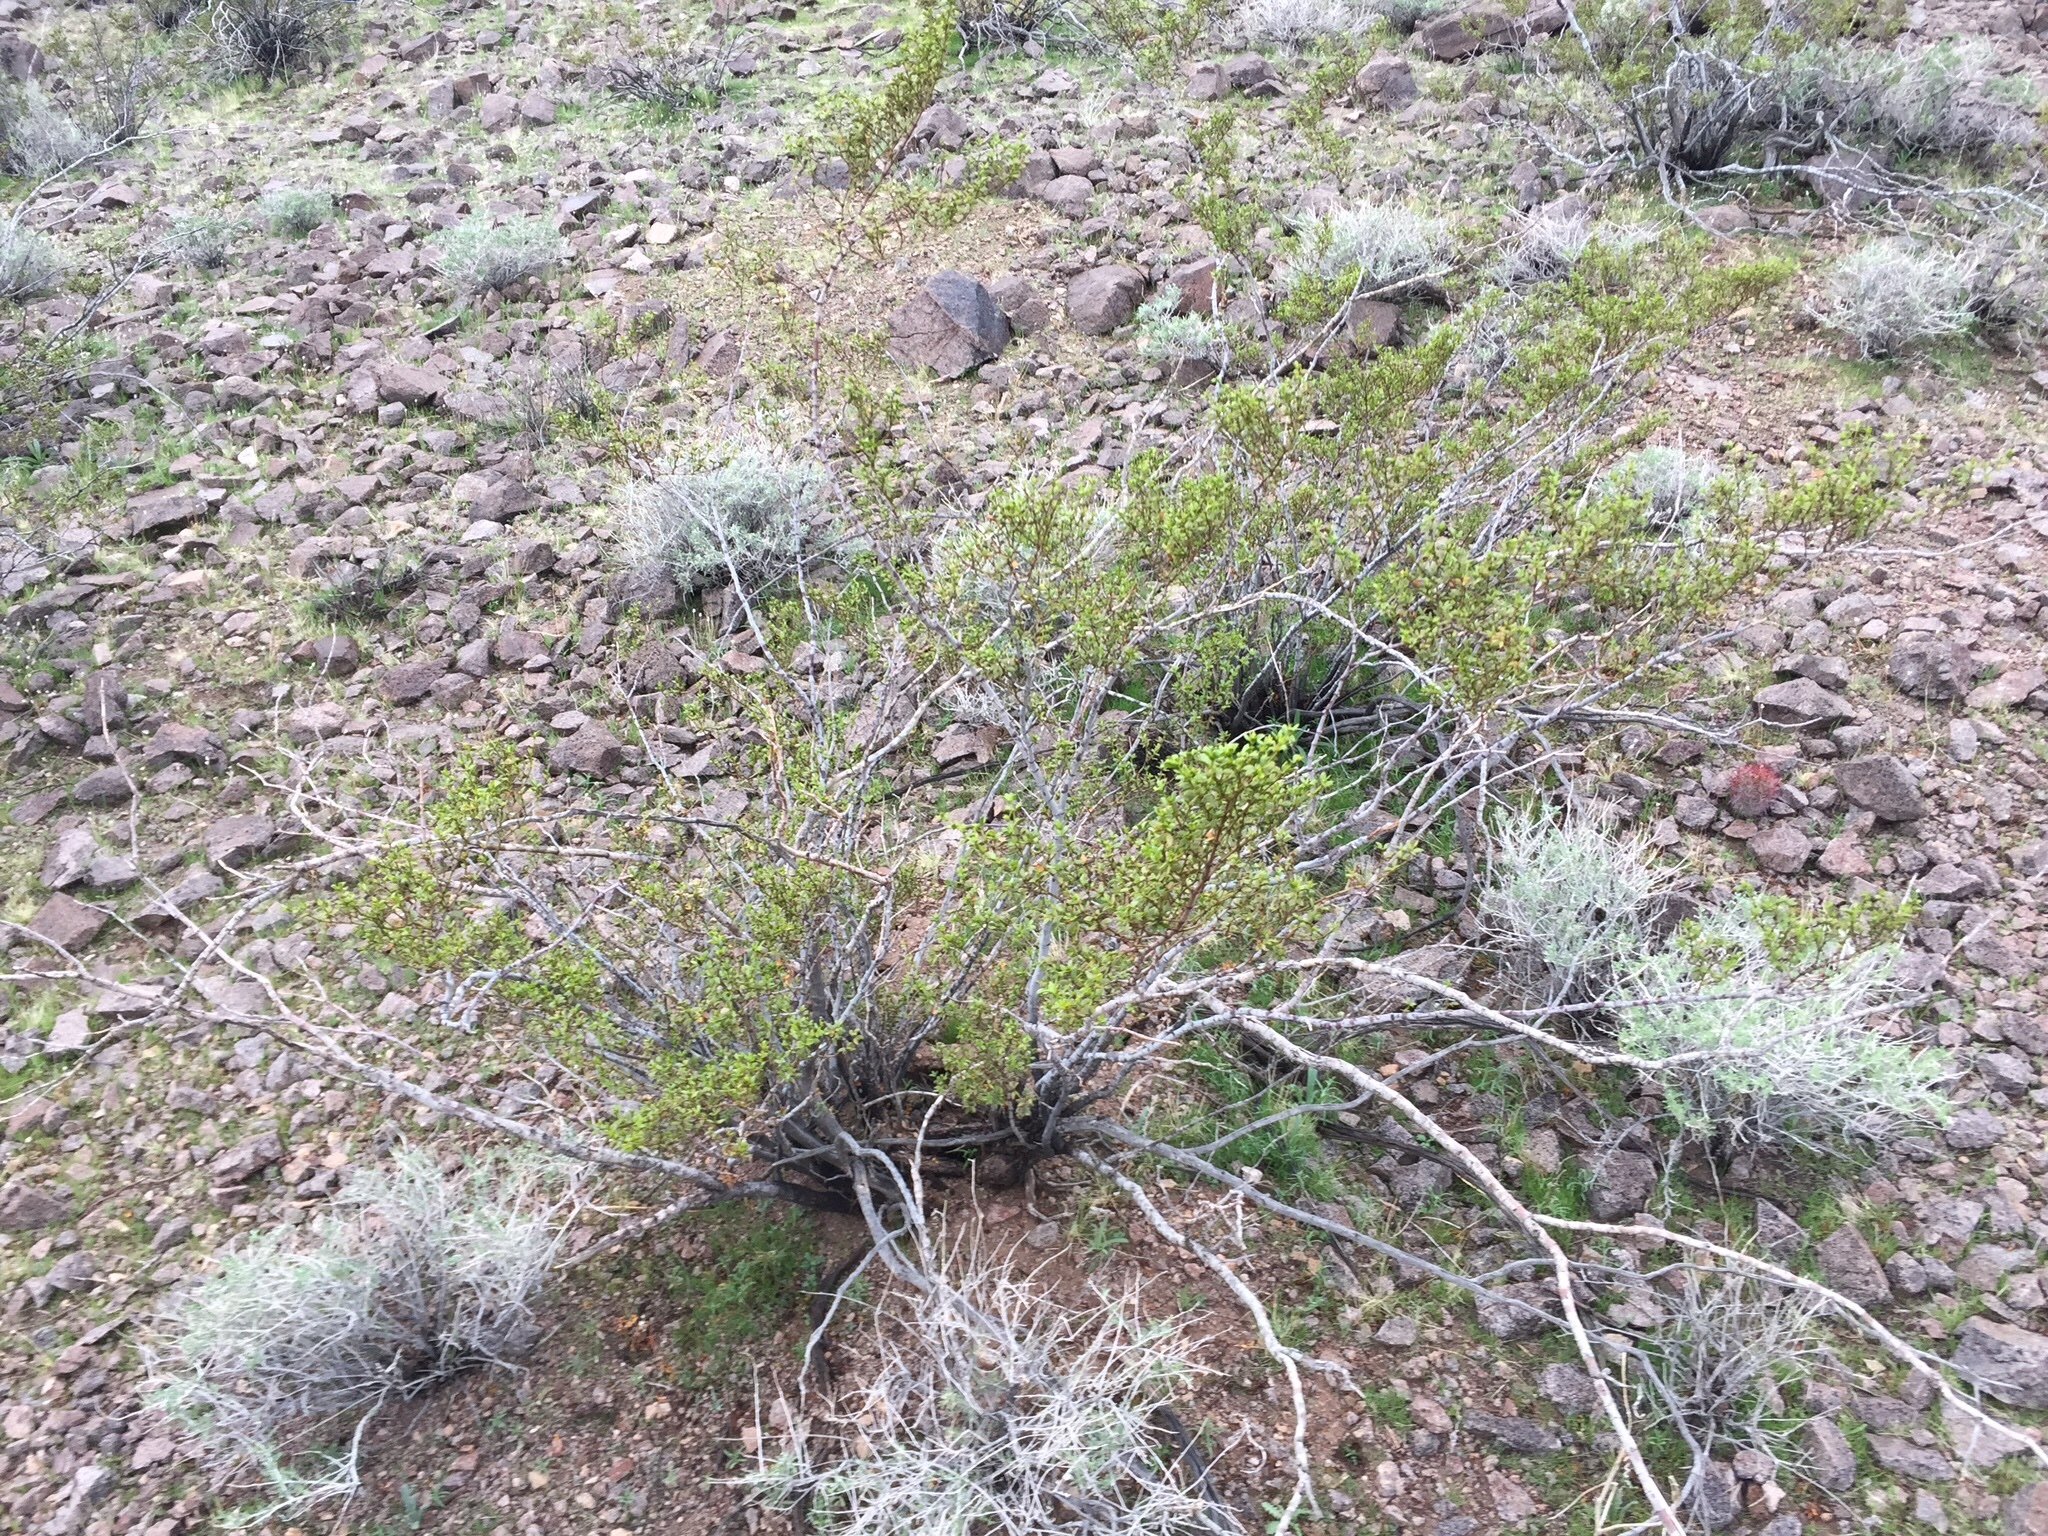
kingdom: Plantae
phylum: Tracheophyta
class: Magnoliopsida
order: Zygophyllales
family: Zygophyllaceae
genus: Larrea
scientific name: Larrea tridentata
